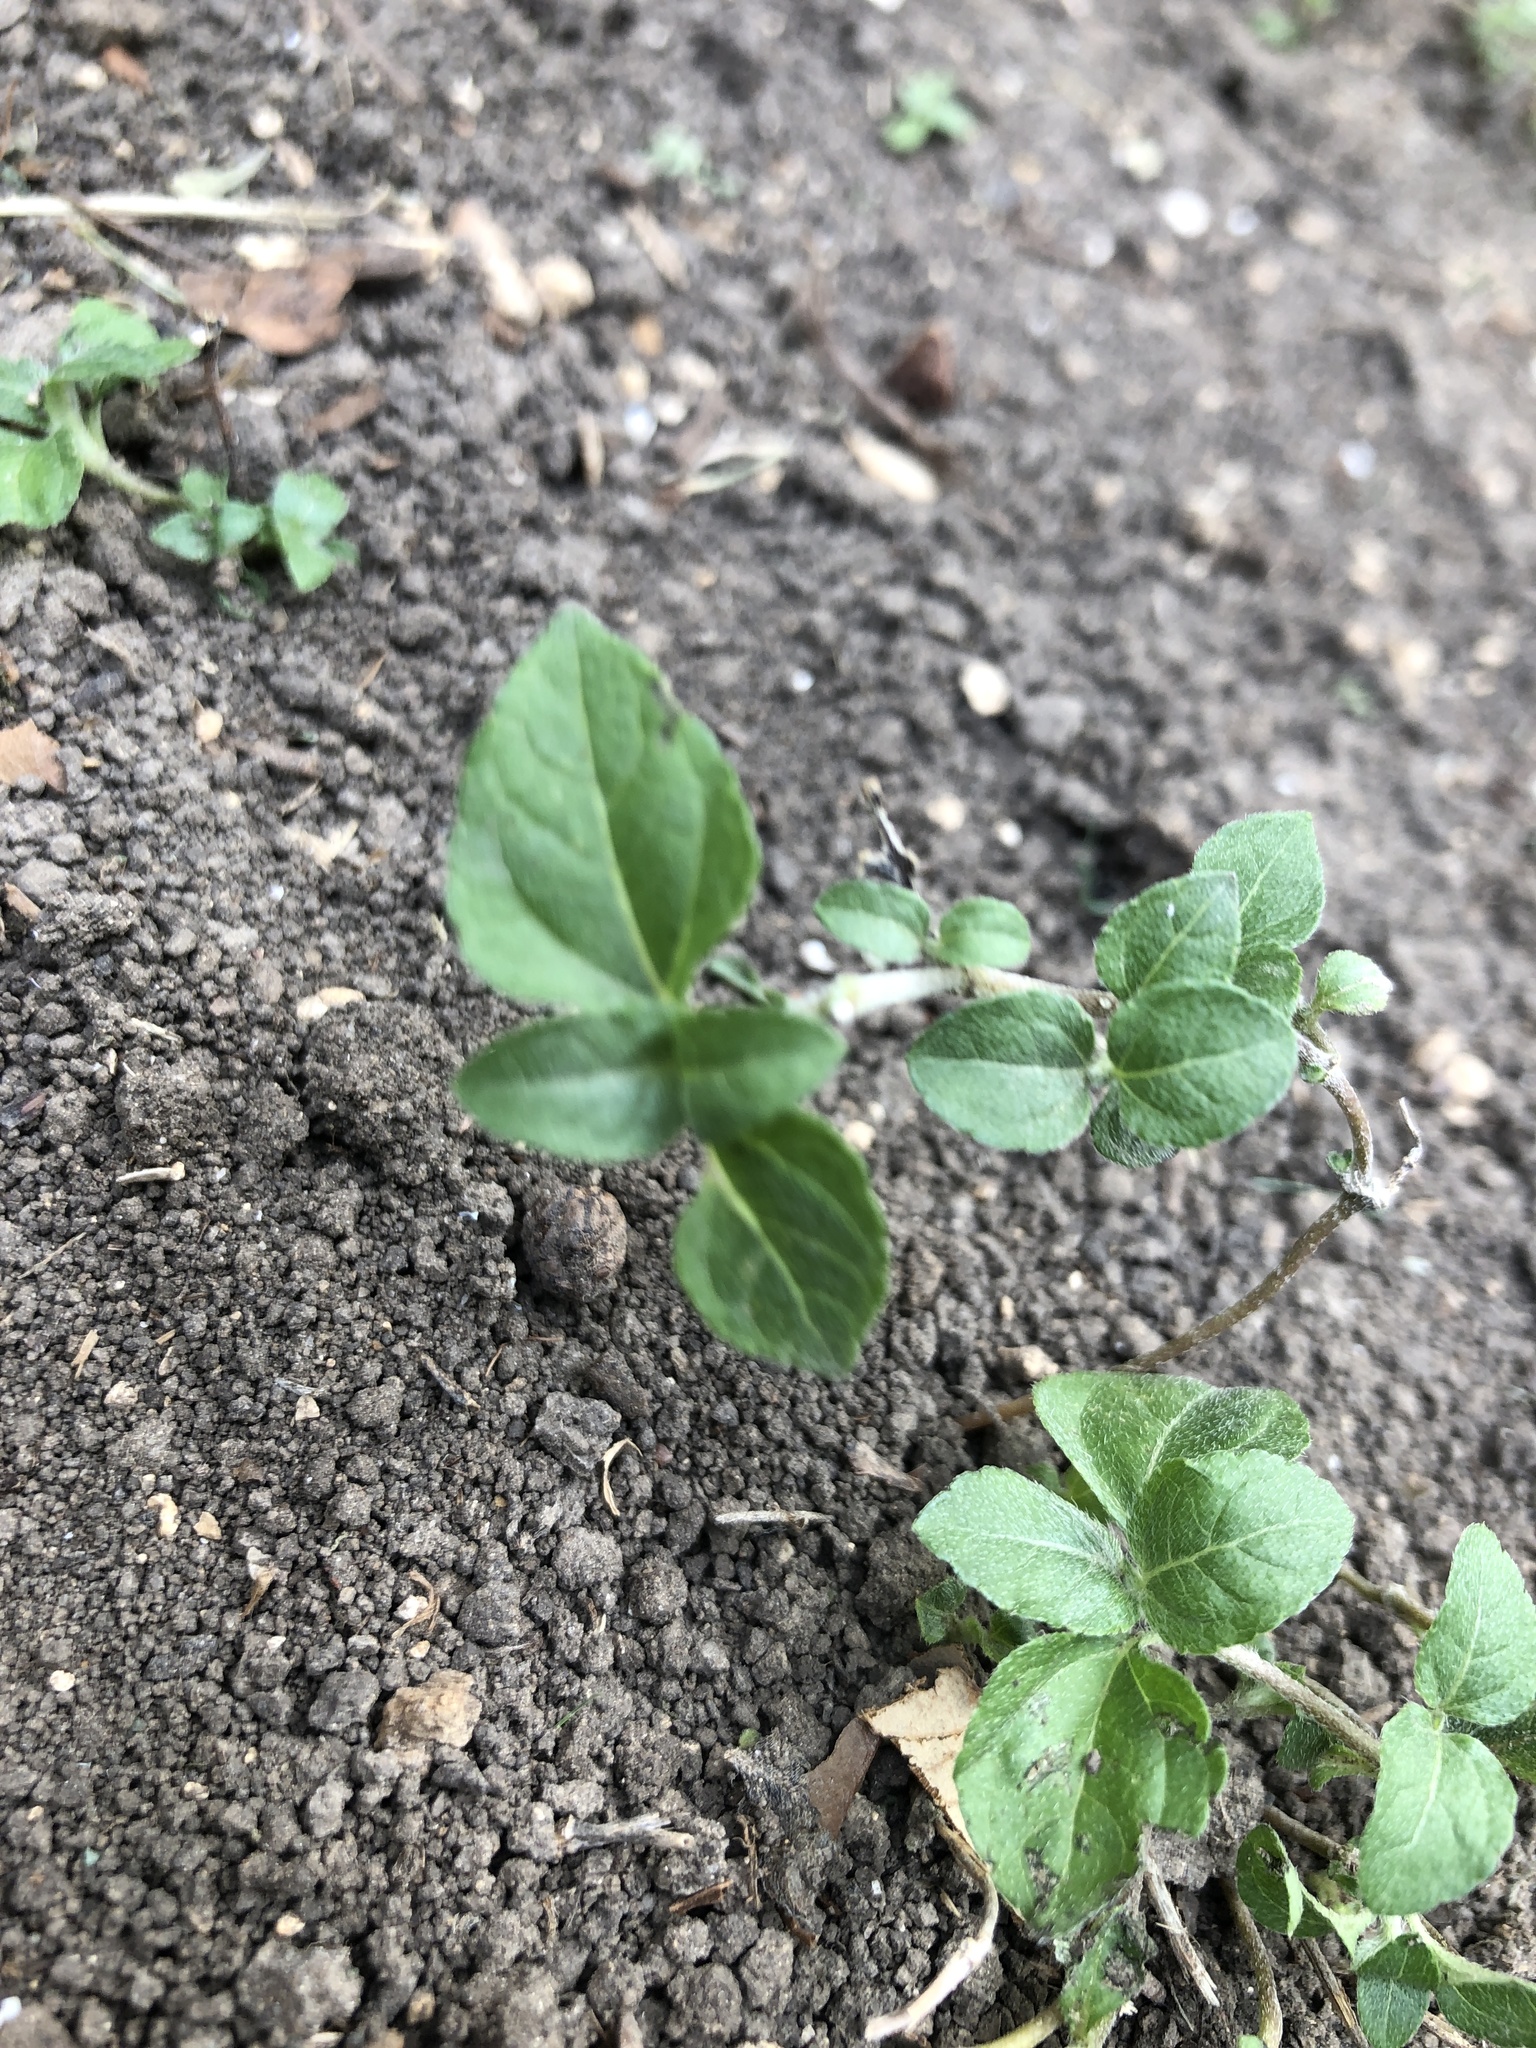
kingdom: Plantae
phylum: Tracheophyta
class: Magnoliopsida
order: Asterales
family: Asteraceae
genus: Calyptocarpus
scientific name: Calyptocarpus vialis
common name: Straggler daisy
